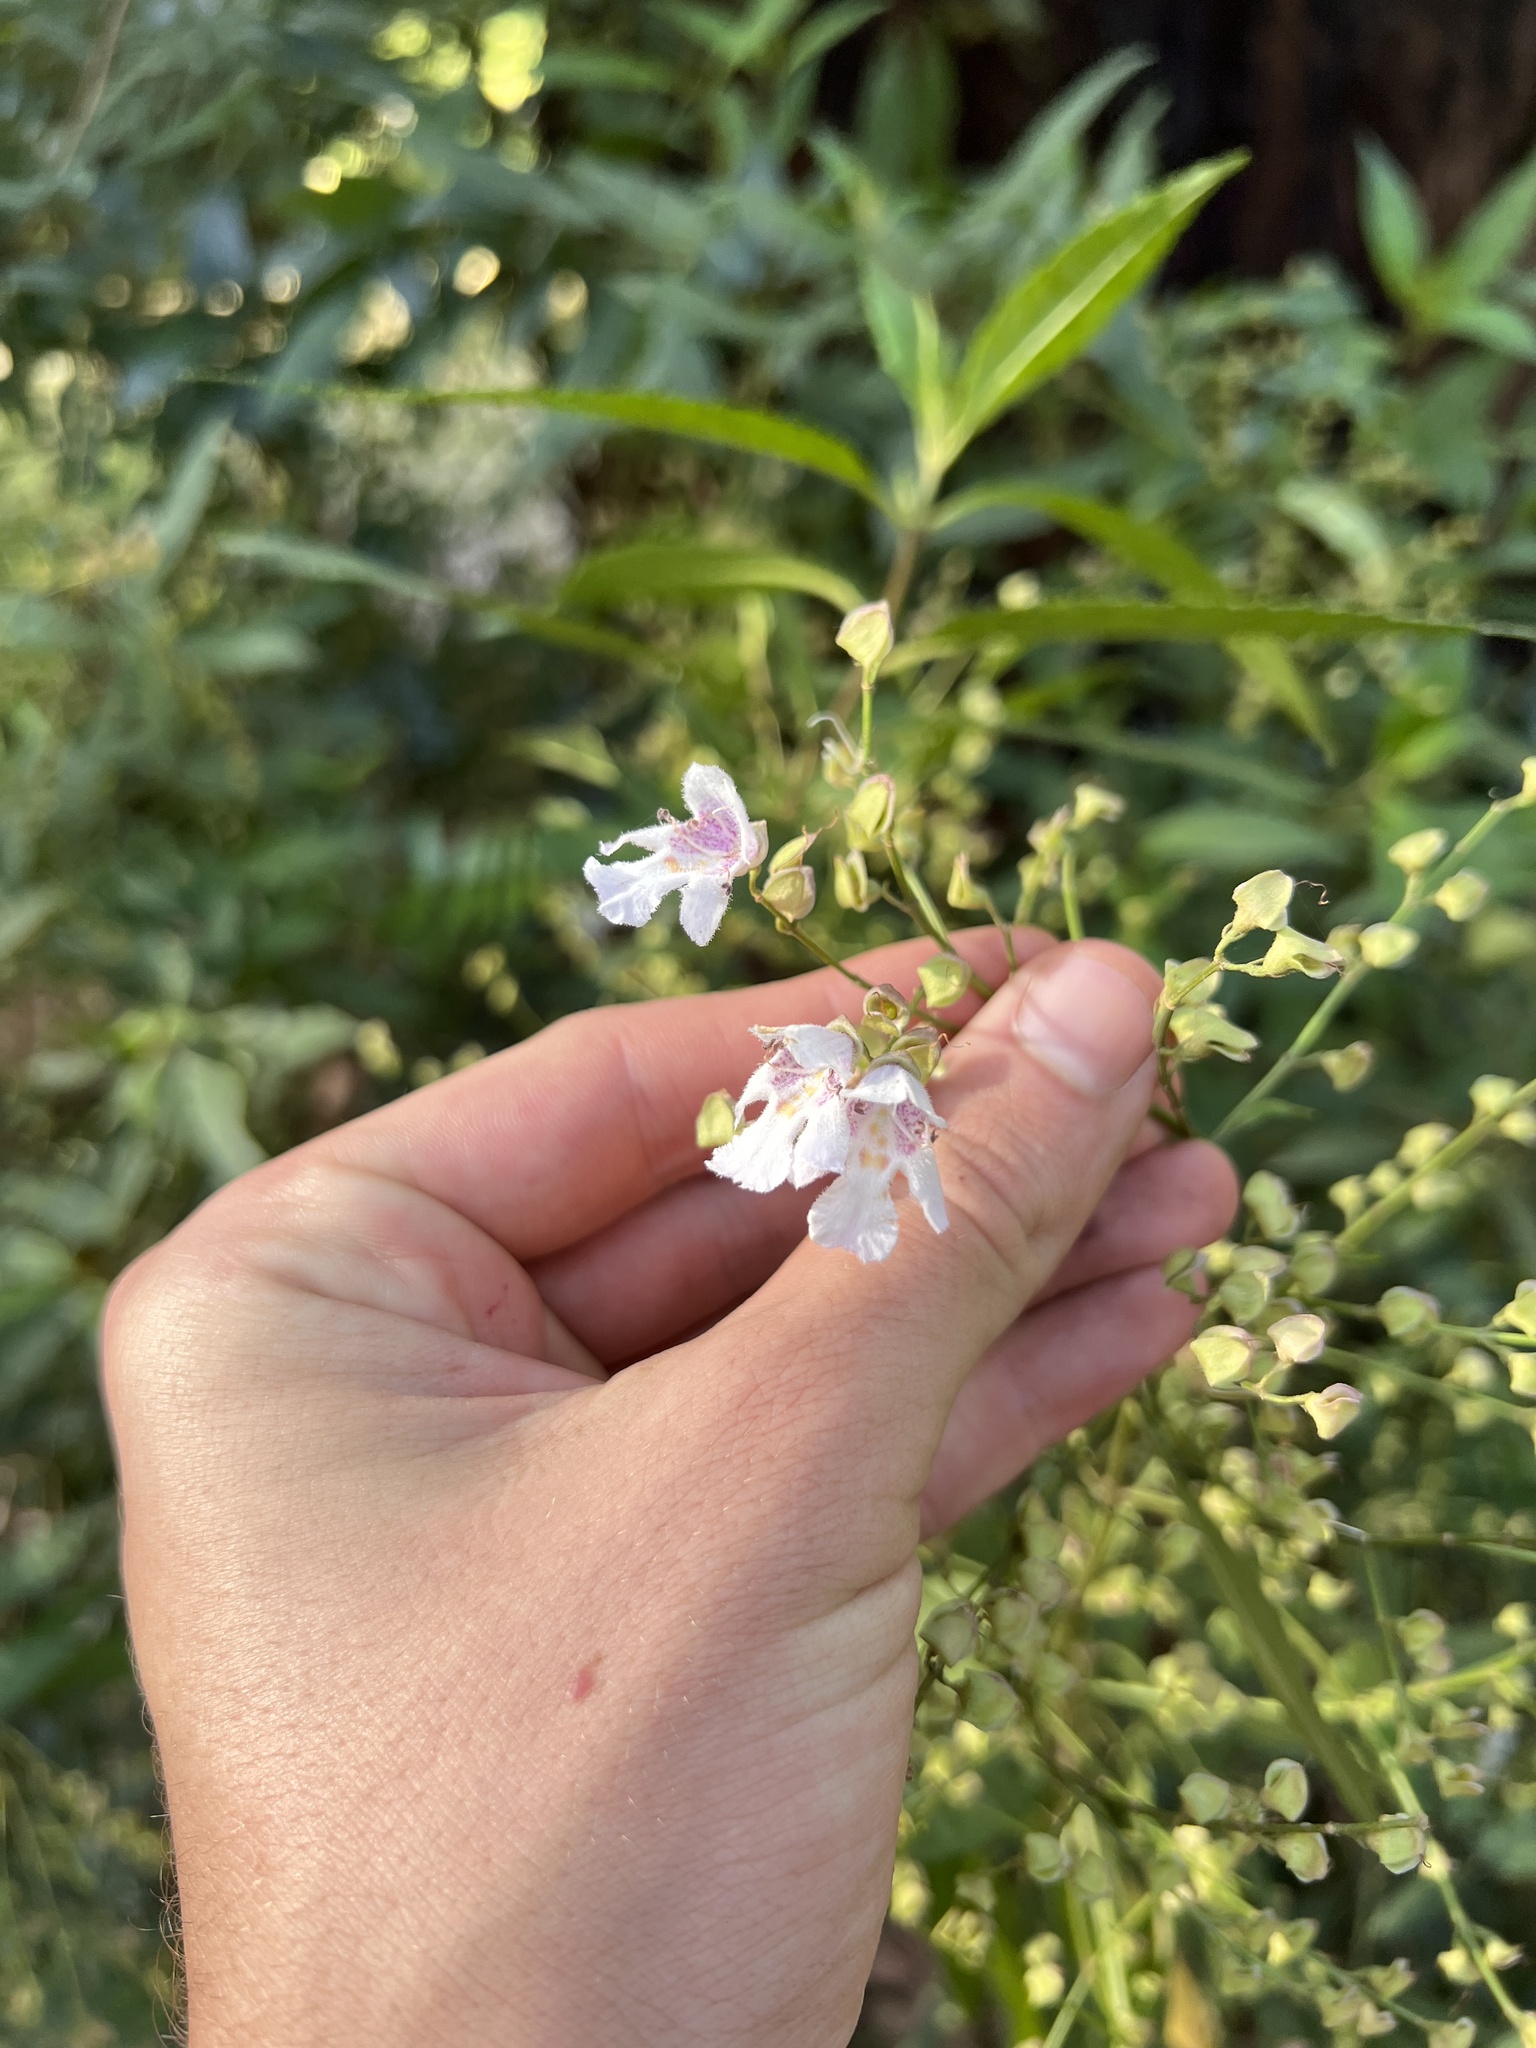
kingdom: Plantae
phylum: Tracheophyta
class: Magnoliopsida
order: Lamiales
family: Lamiaceae
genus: Prostanthera
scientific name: Prostanthera lasianthos
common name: Mountain-lilac
